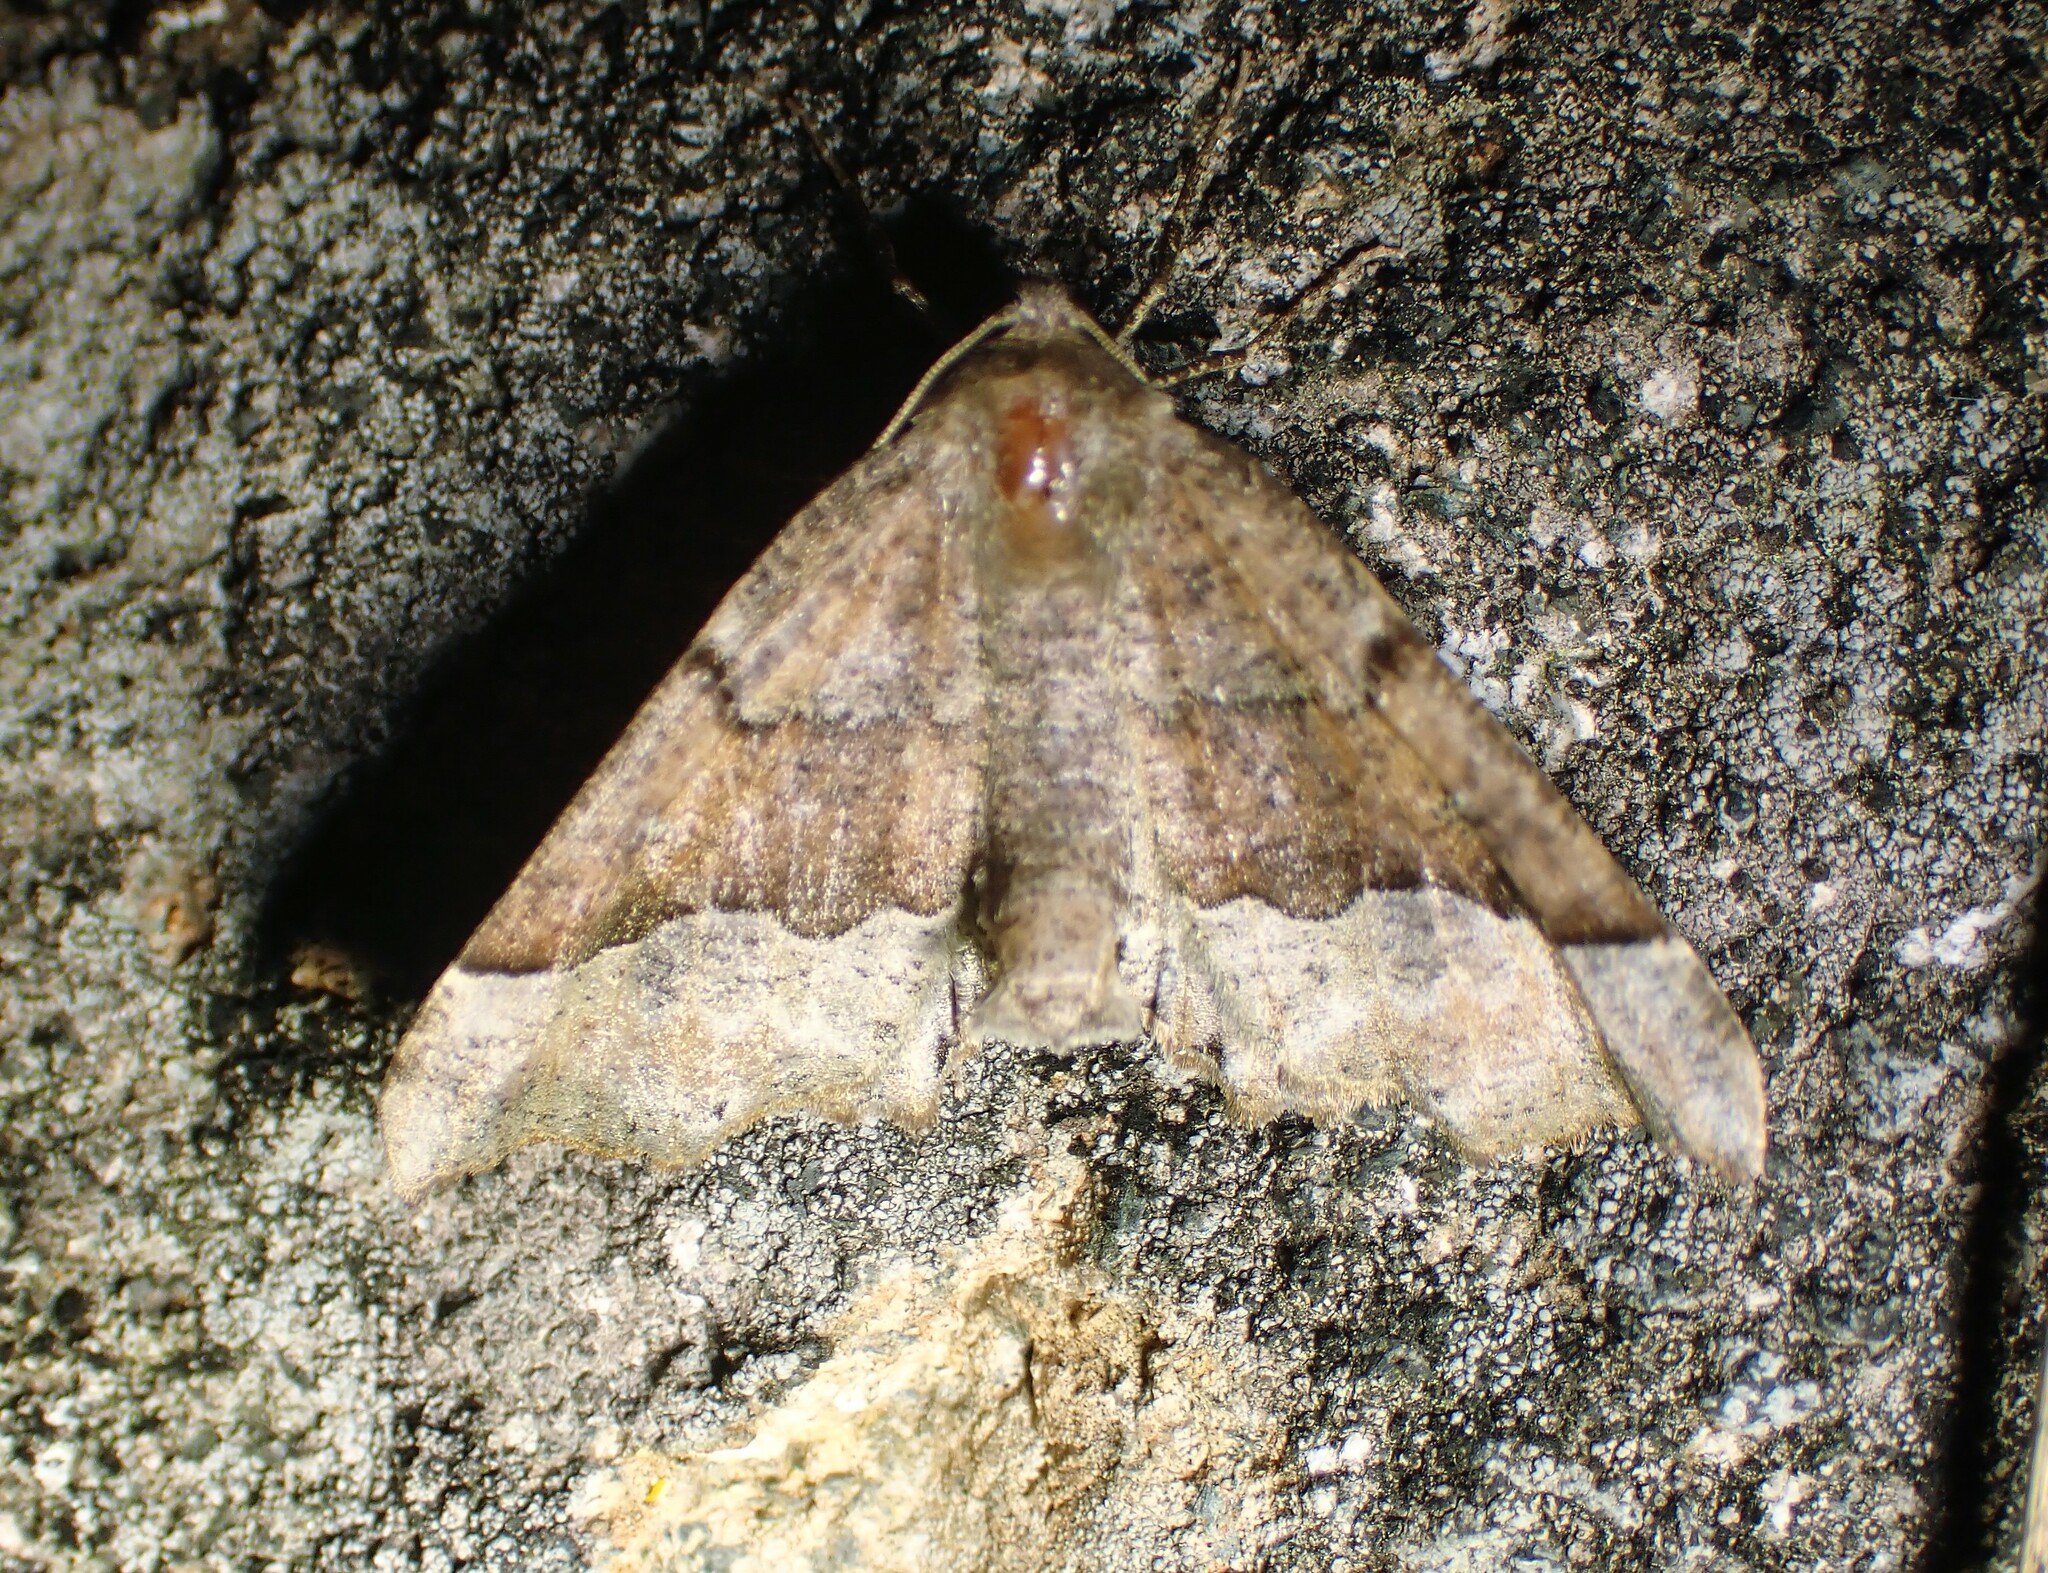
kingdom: Animalia
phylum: Arthropoda
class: Insecta
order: Lepidoptera
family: Geometridae
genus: Pero
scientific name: Pero morrisonaria
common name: Morrison's pero
